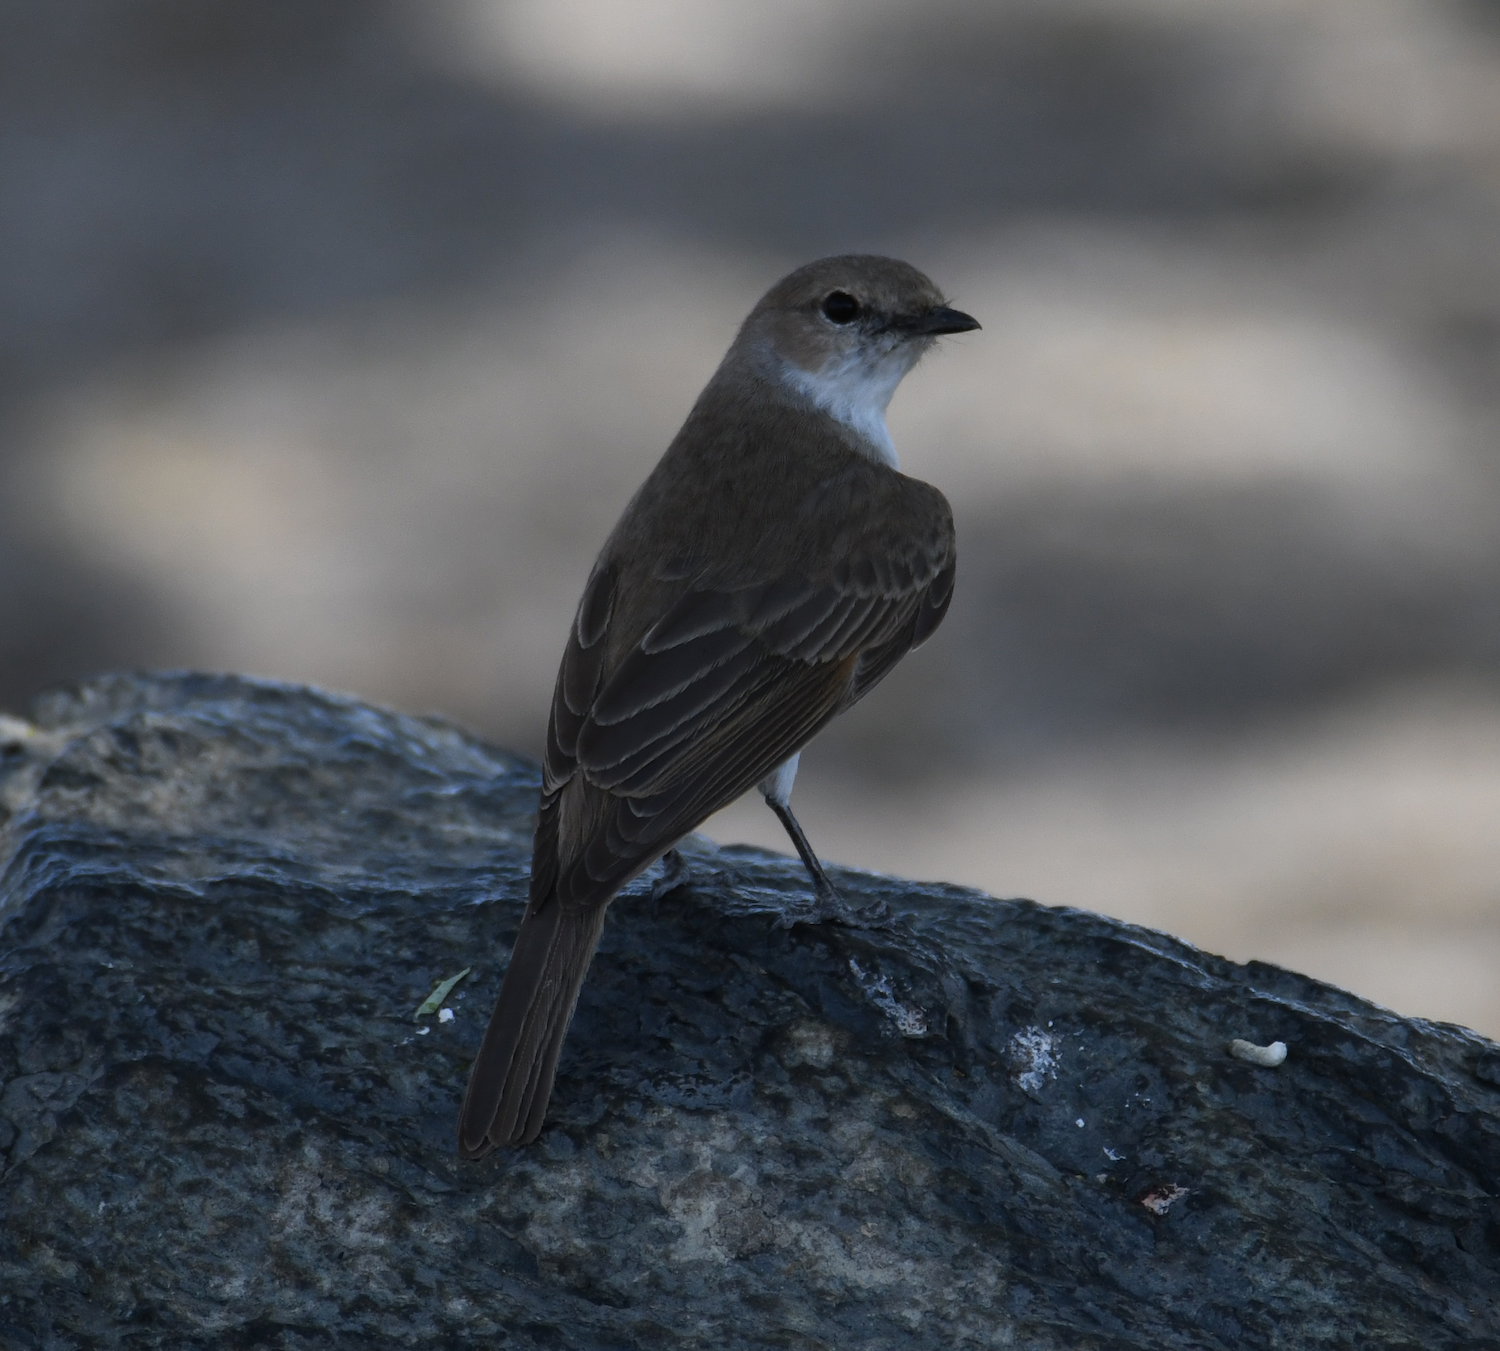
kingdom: Animalia
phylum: Chordata
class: Aves
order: Passeriformes
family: Muscicapidae
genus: Bradornis
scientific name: Bradornis mariquensis
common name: Marico flycatcher
